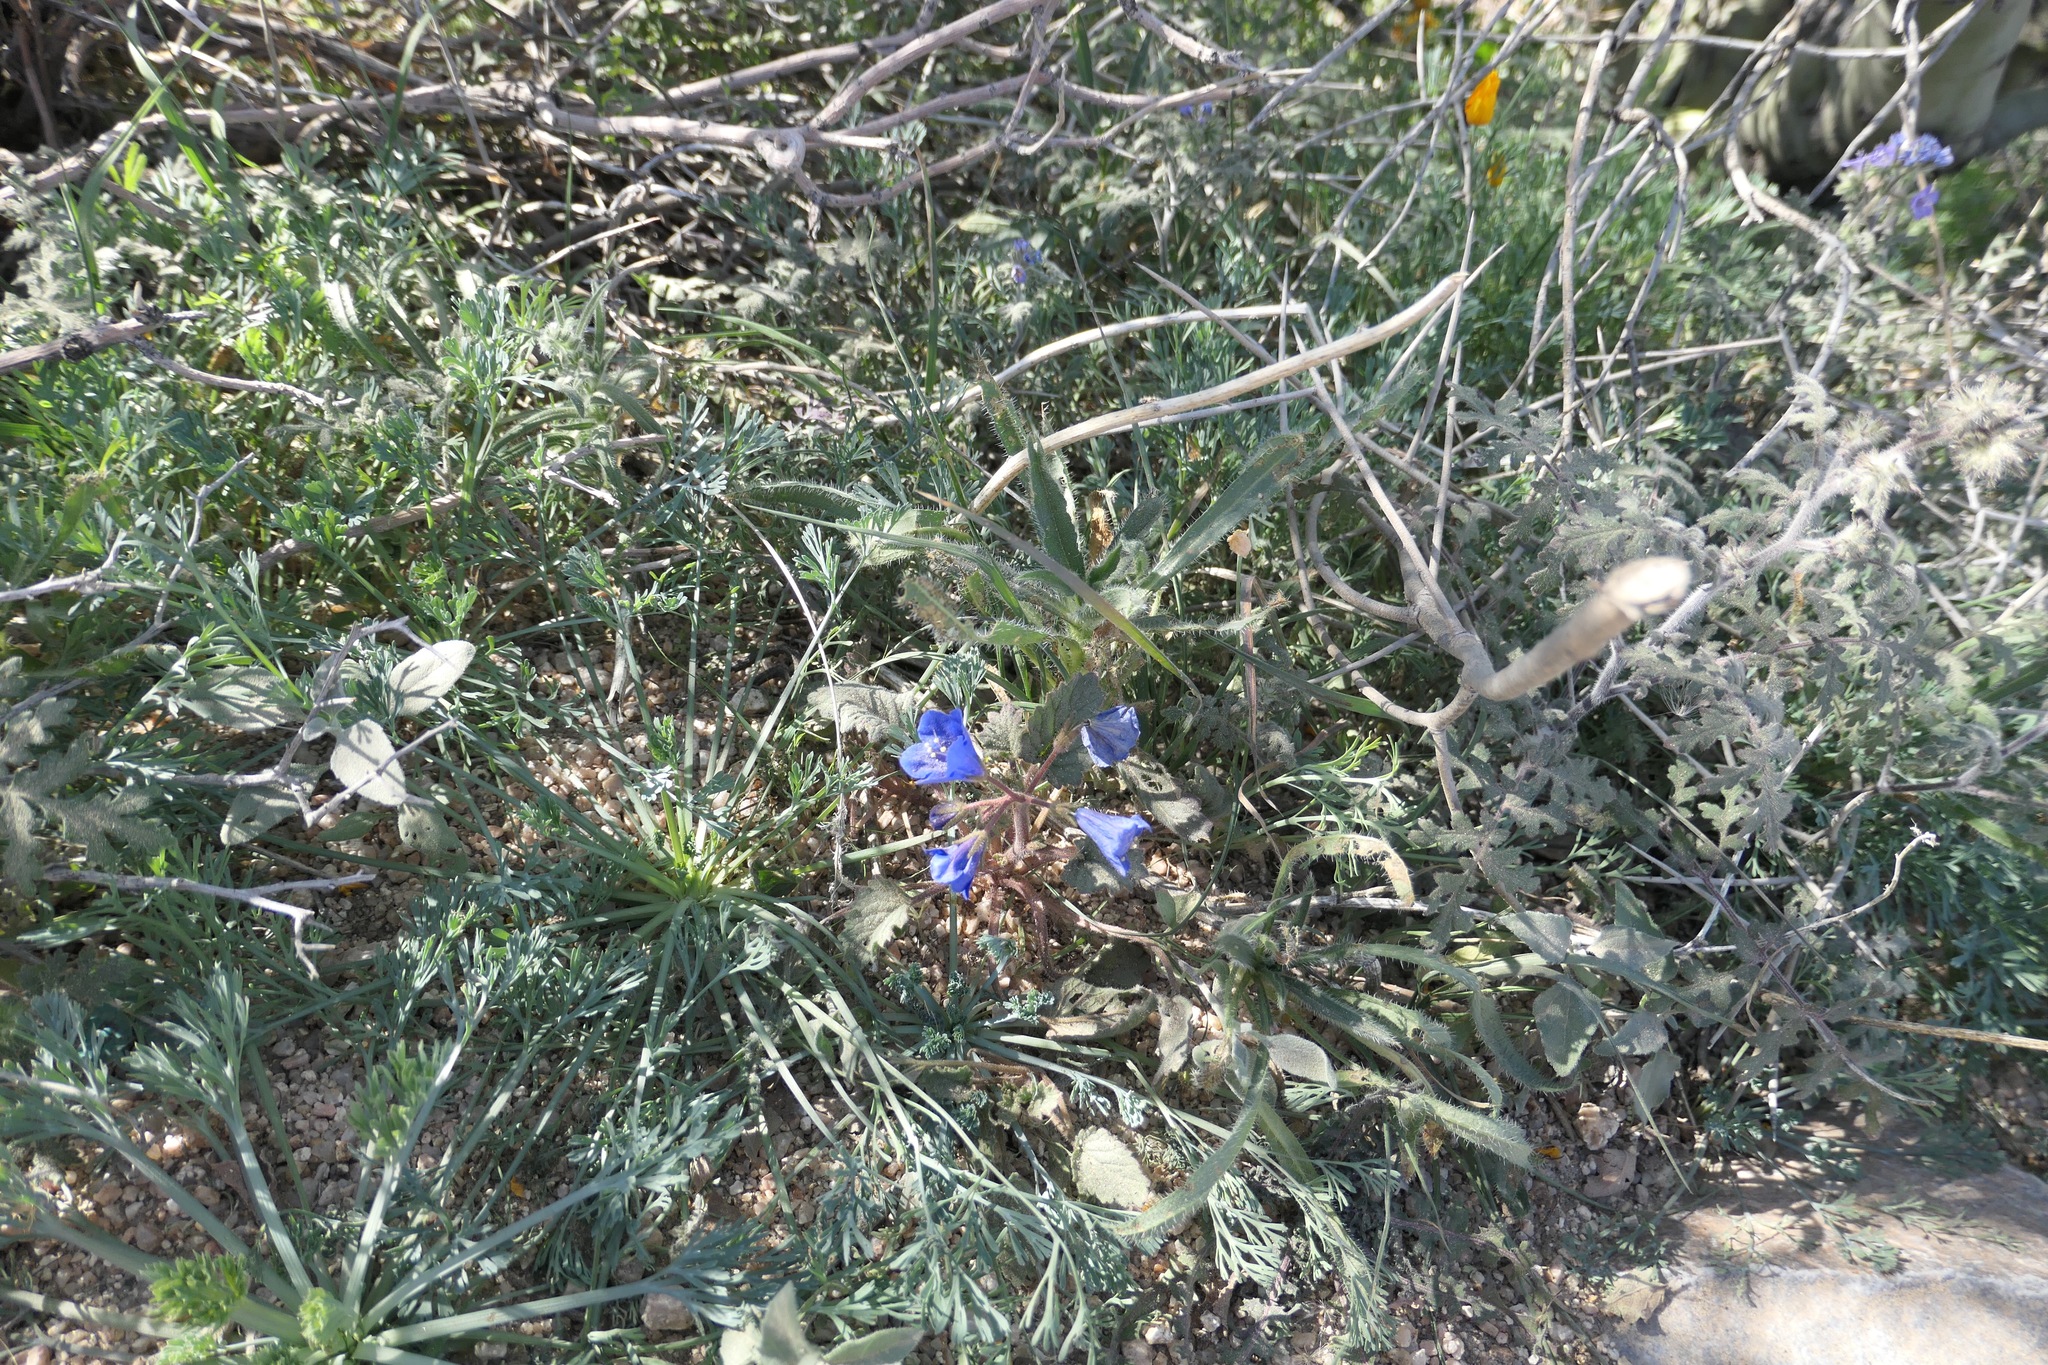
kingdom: Plantae
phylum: Tracheophyta
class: Magnoliopsida
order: Boraginales
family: Hydrophyllaceae
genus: Phacelia
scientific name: Phacelia campanularia
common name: California bluebell
